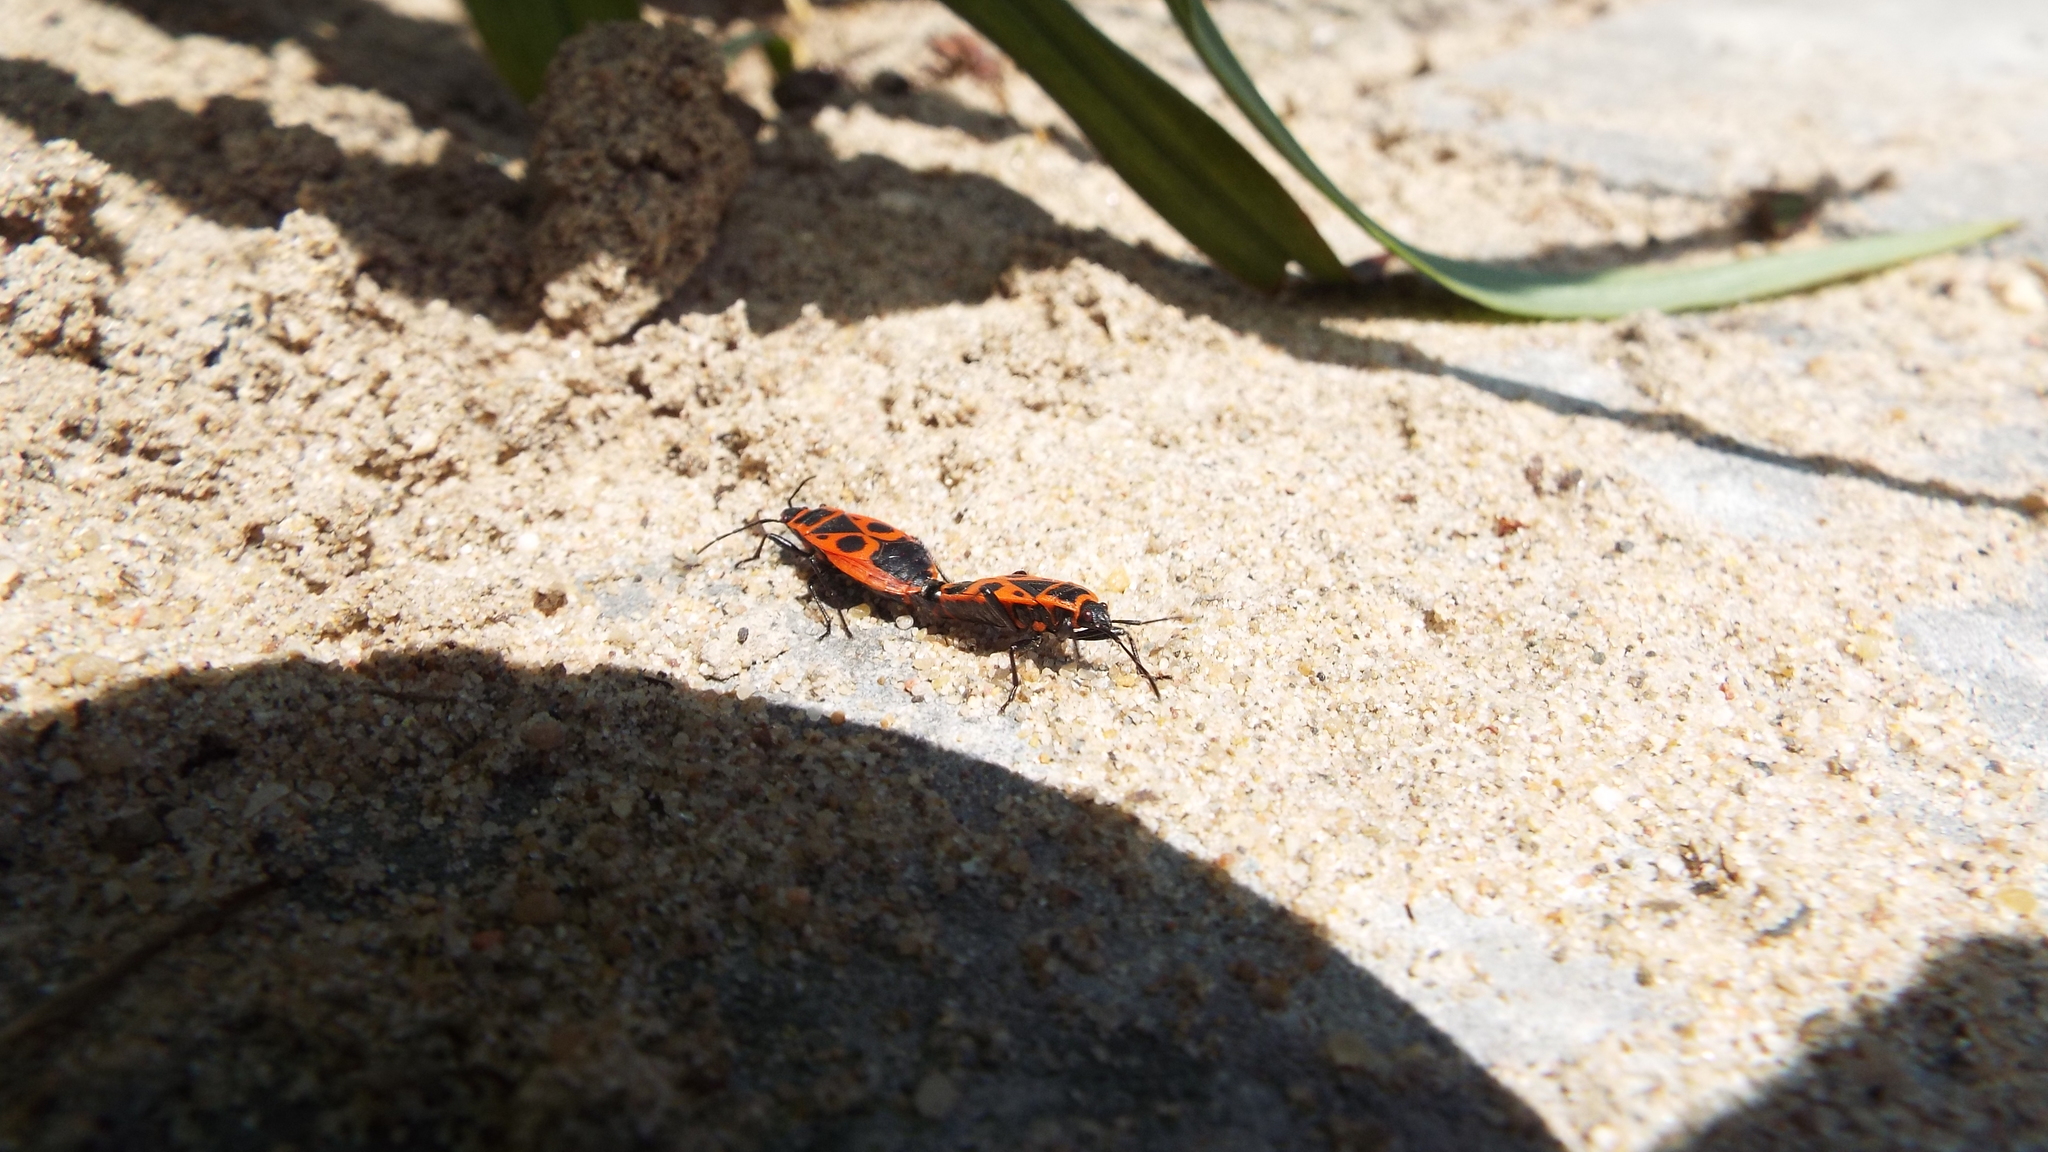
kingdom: Animalia
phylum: Arthropoda
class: Insecta
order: Hemiptera
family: Pyrrhocoridae
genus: Pyrrhocoris
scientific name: Pyrrhocoris apterus
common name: Firebug
